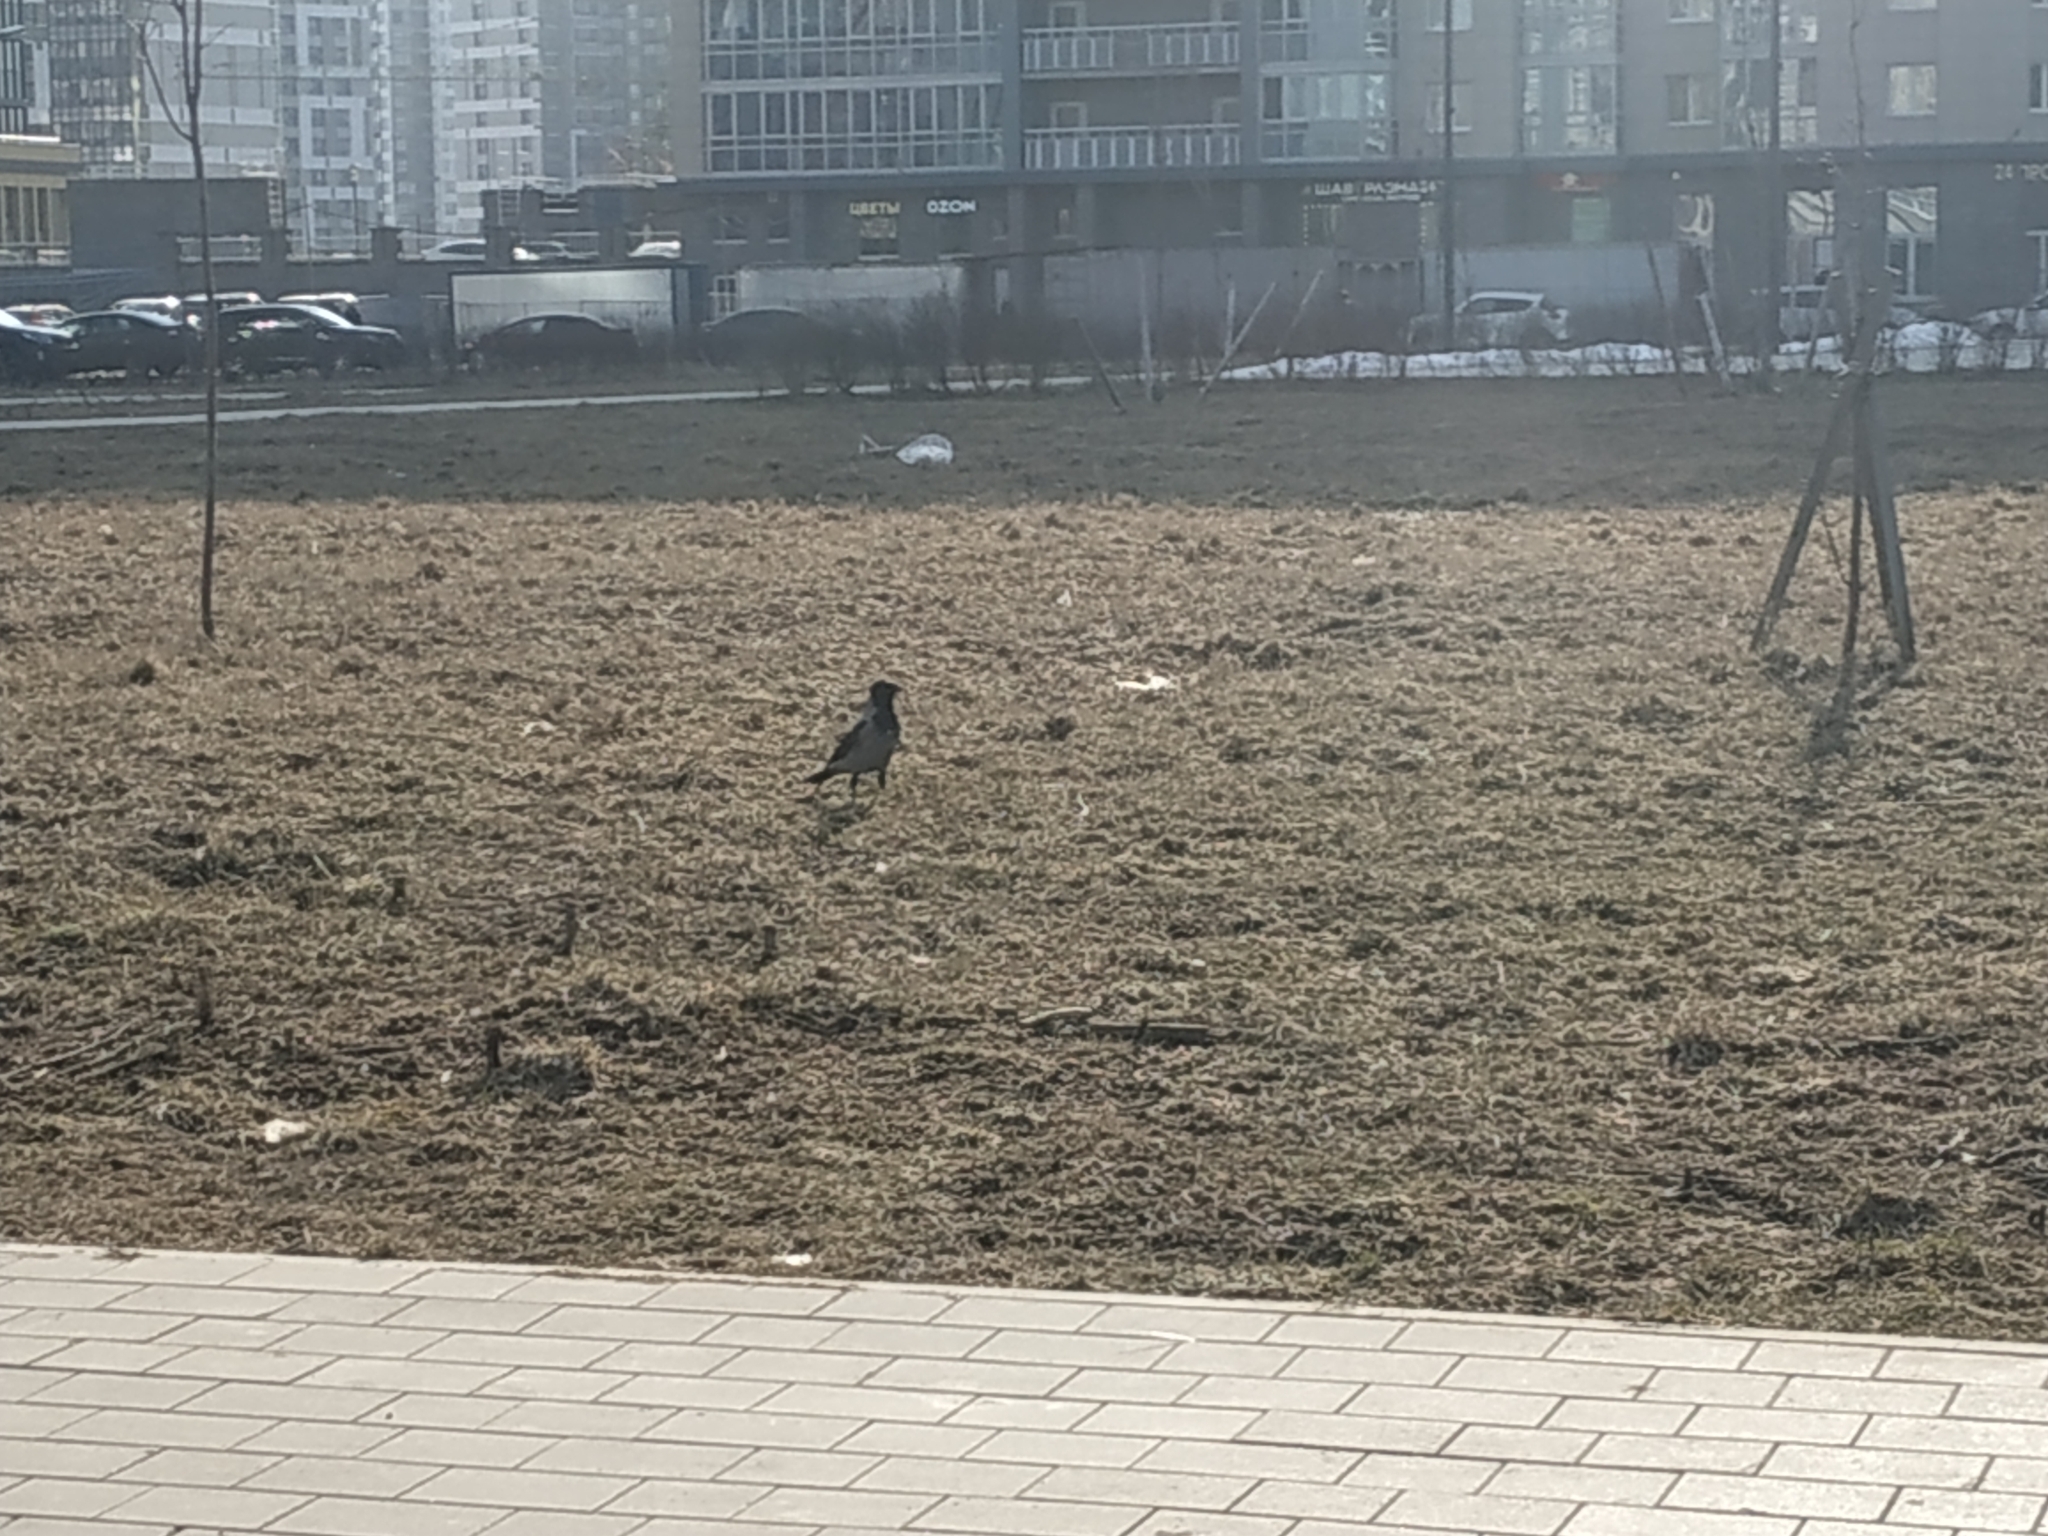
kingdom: Animalia
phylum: Chordata
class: Aves
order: Passeriformes
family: Corvidae
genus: Corvus
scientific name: Corvus cornix
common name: Hooded crow
